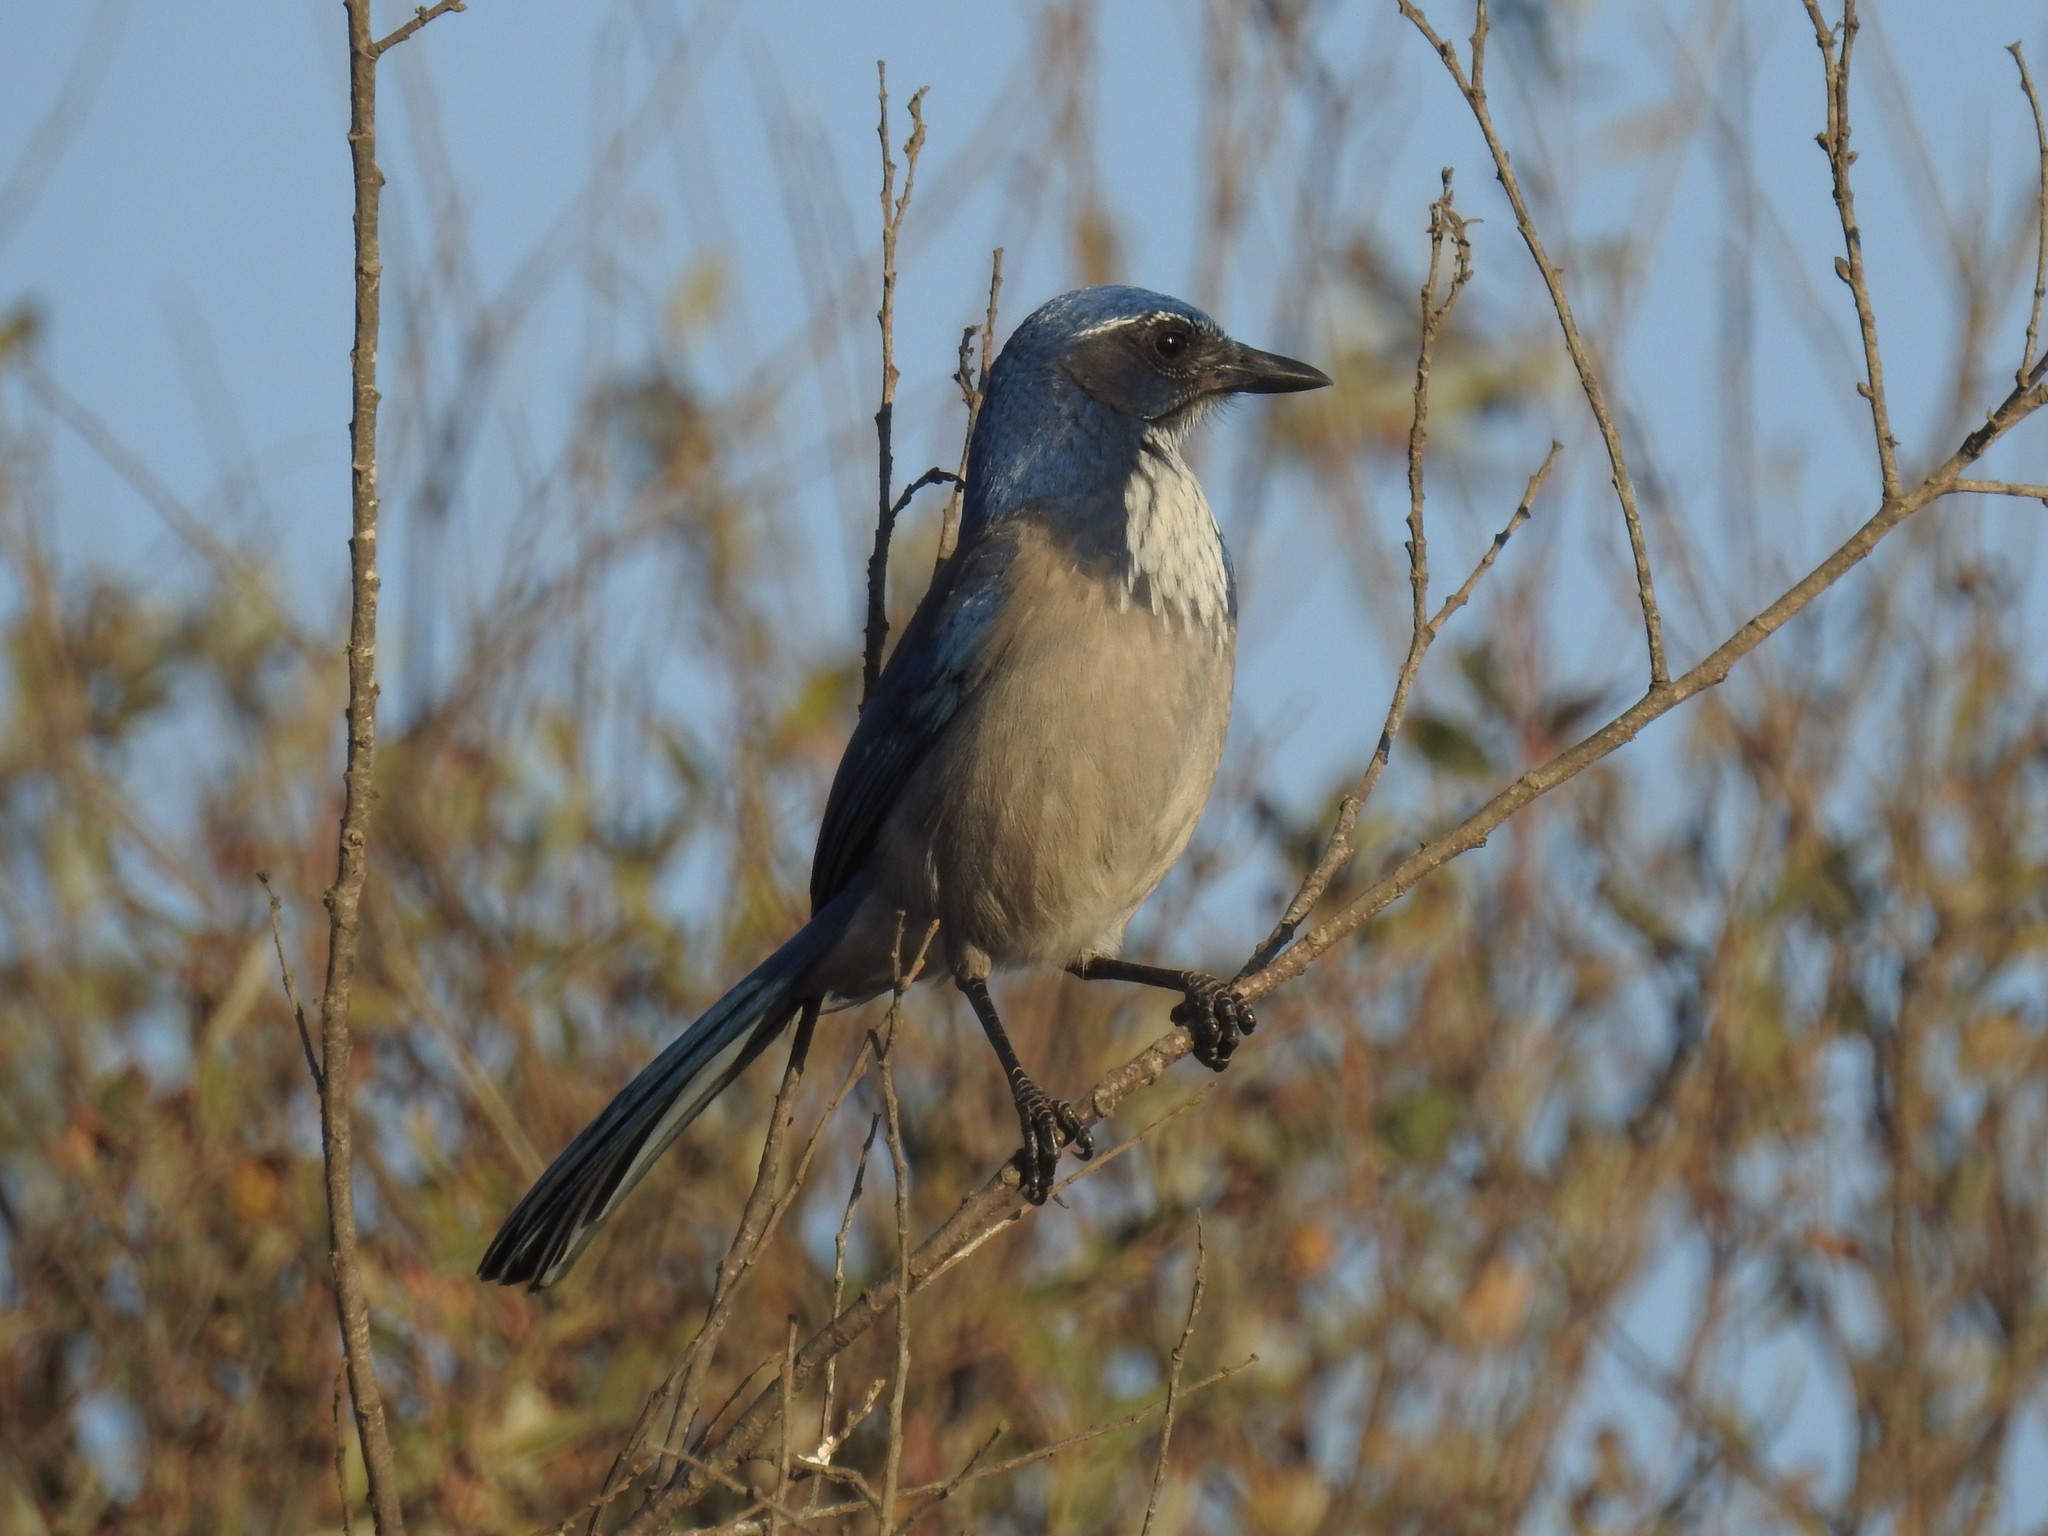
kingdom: Animalia
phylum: Chordata
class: Aves
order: Passeriformes
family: Corvidae
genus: Aphelocoma
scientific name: Aphelocoma californica
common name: California scrub-jay
